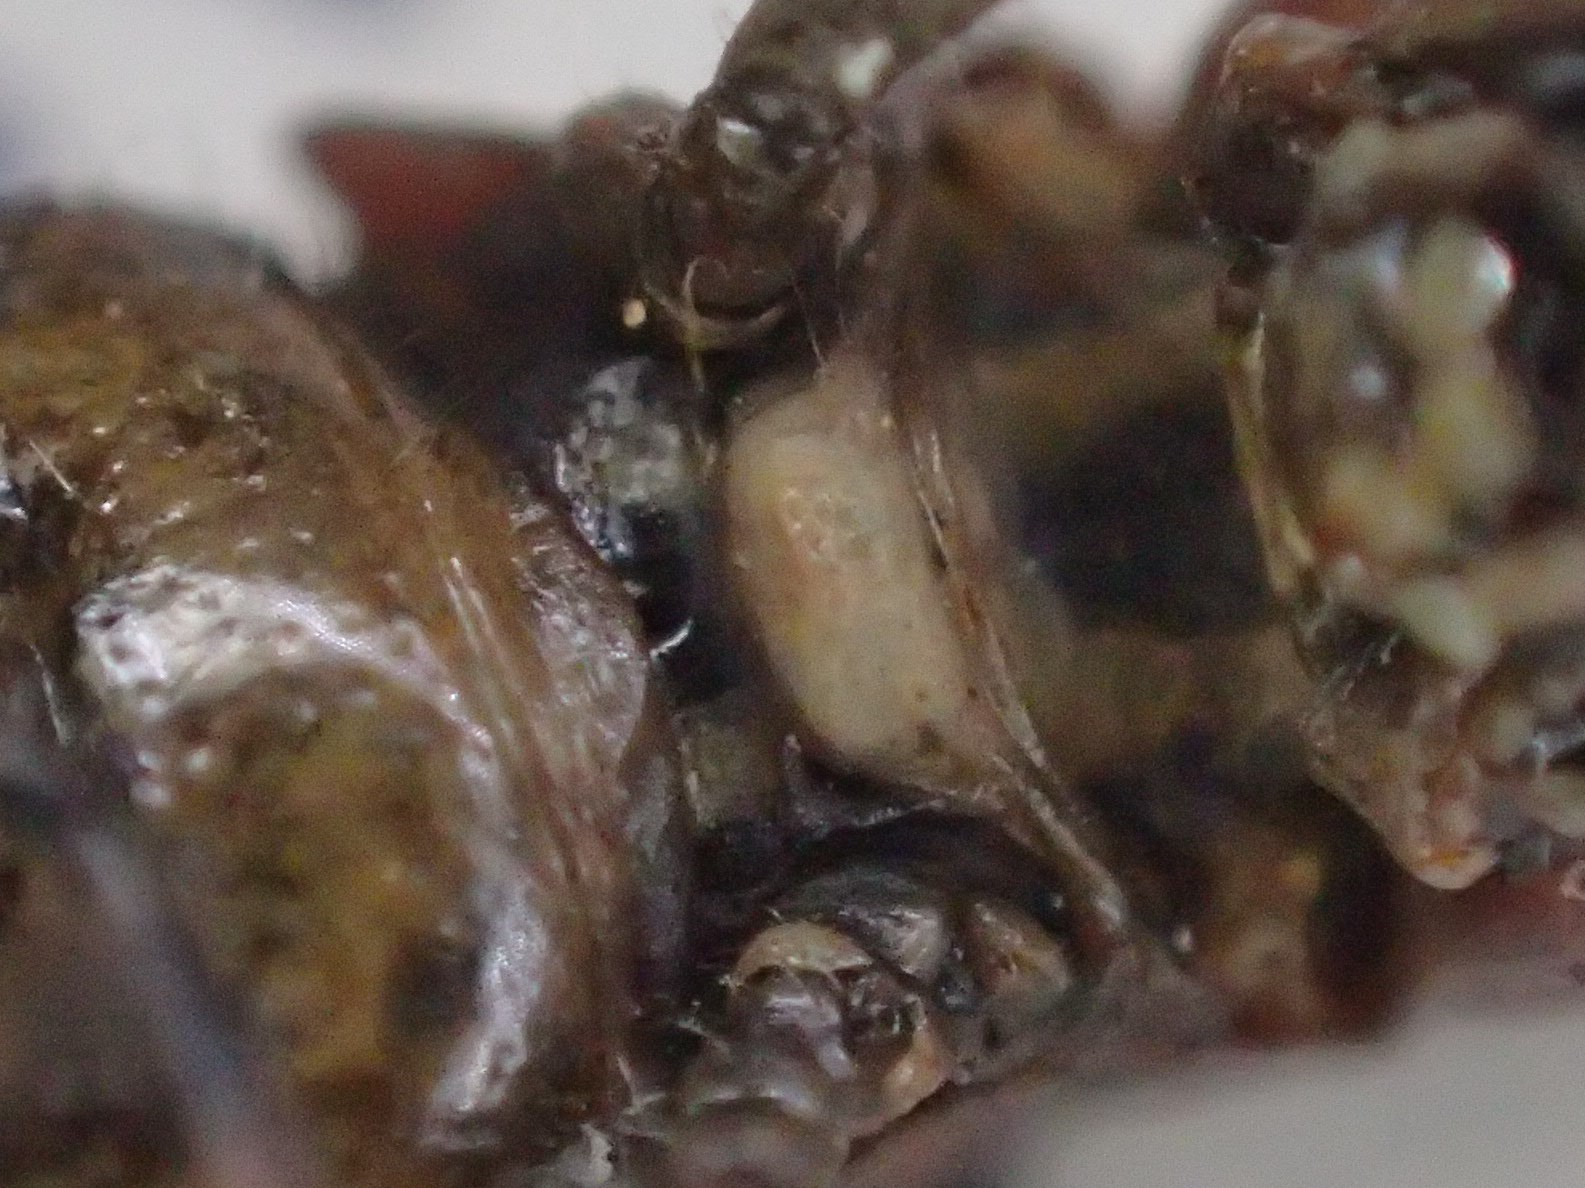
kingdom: Animalia
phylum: Arthropoda
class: Insecta
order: Orthoptera
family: Acrididae
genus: Minyacris
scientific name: Minyacris nana
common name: Tiny grasshopper
